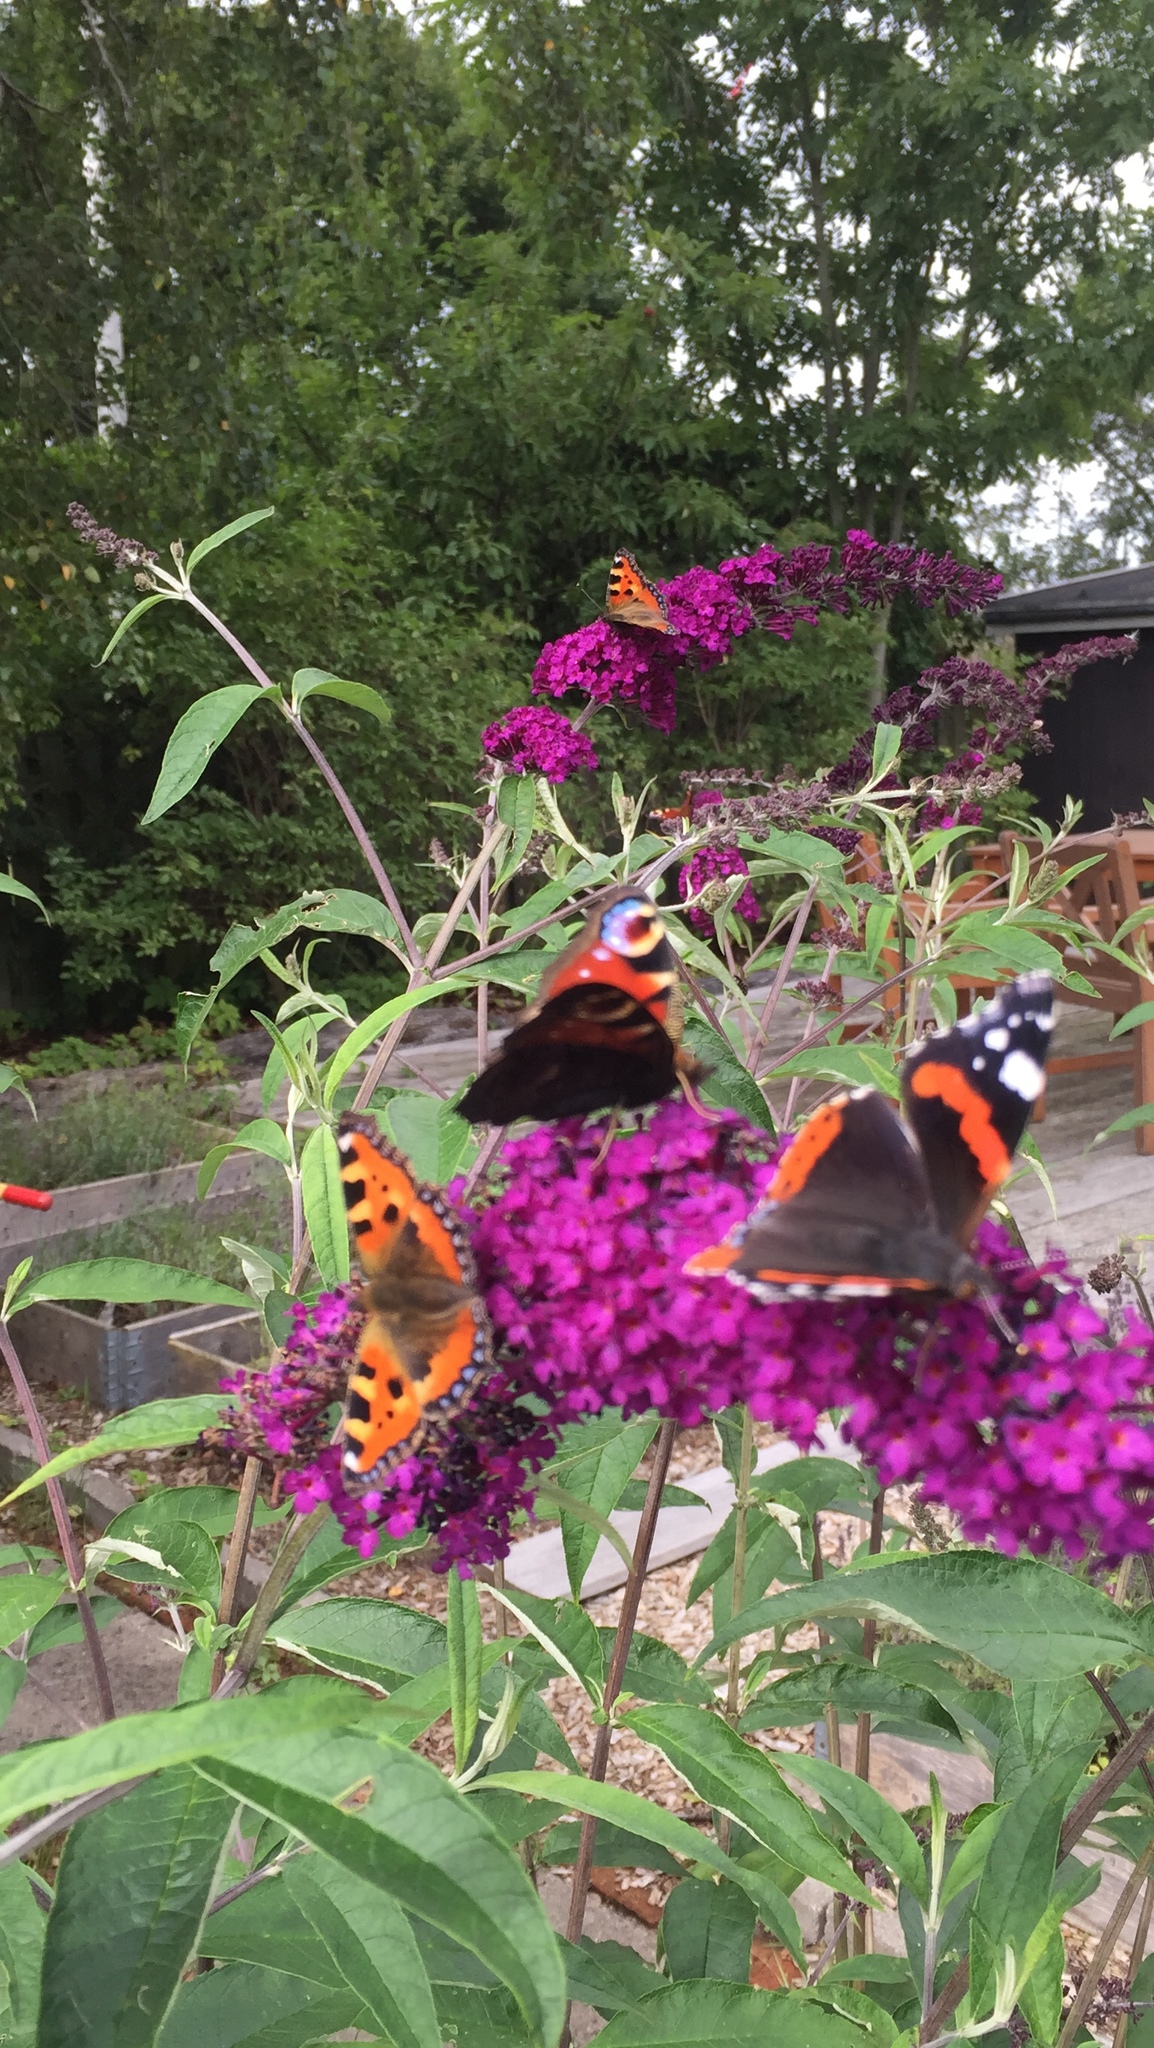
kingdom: Animalia
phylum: Arthropoda
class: Insecta
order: Lepidoptera
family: Nymphalidae
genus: Vanessa
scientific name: Vanessa atalanta
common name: Red admiral
